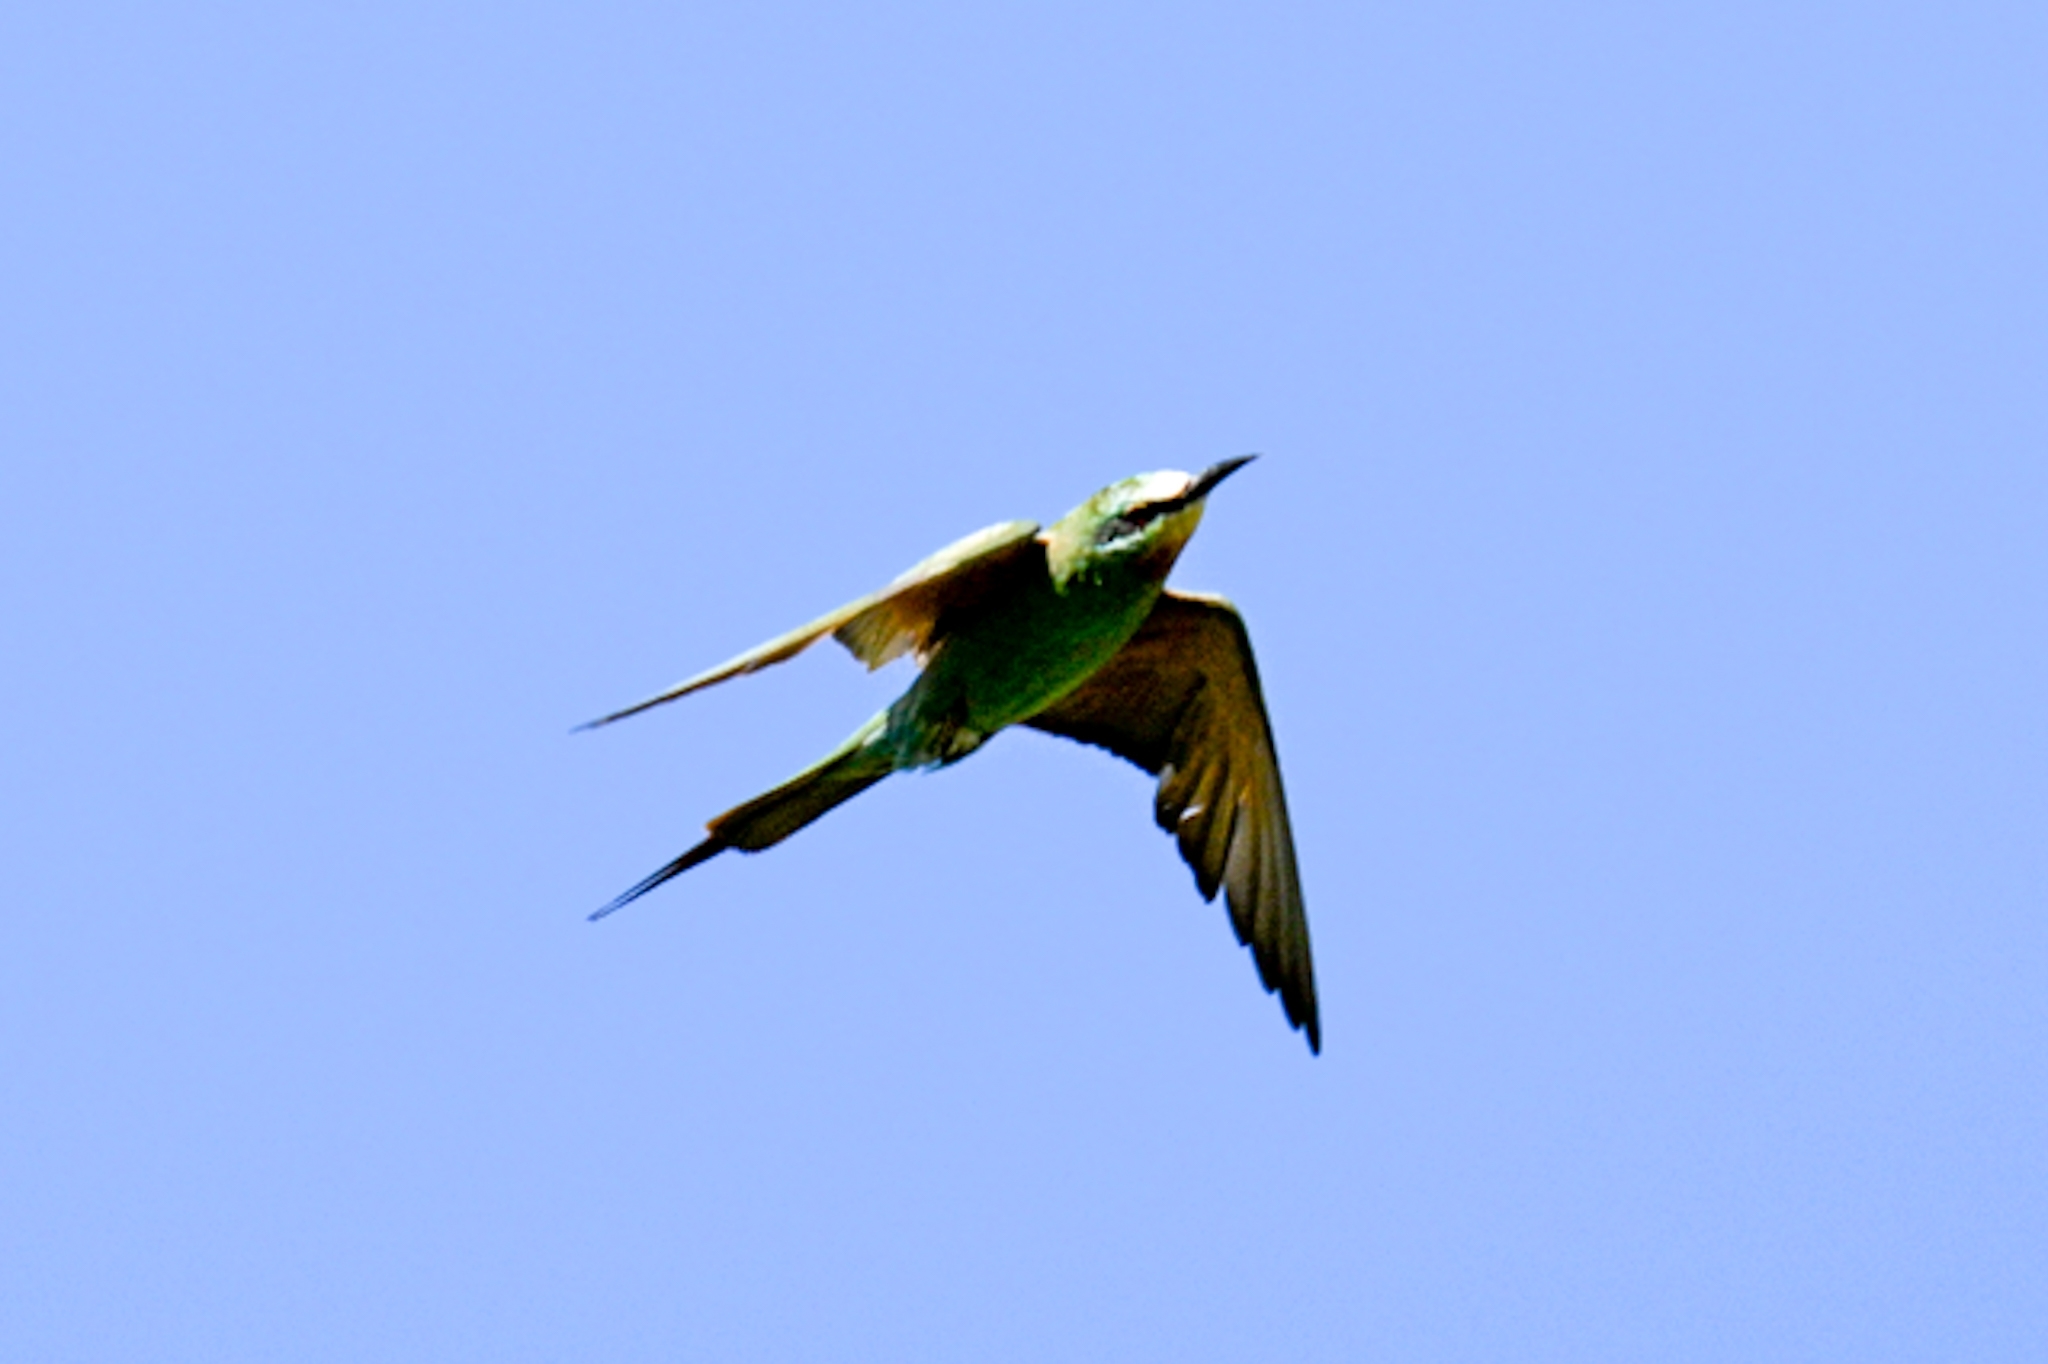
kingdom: Animalia
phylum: Chordata
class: Aves
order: Coraciiformes
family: Meropidae
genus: Merops
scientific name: Merops persicus
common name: Blue-cheeked bee-eater
